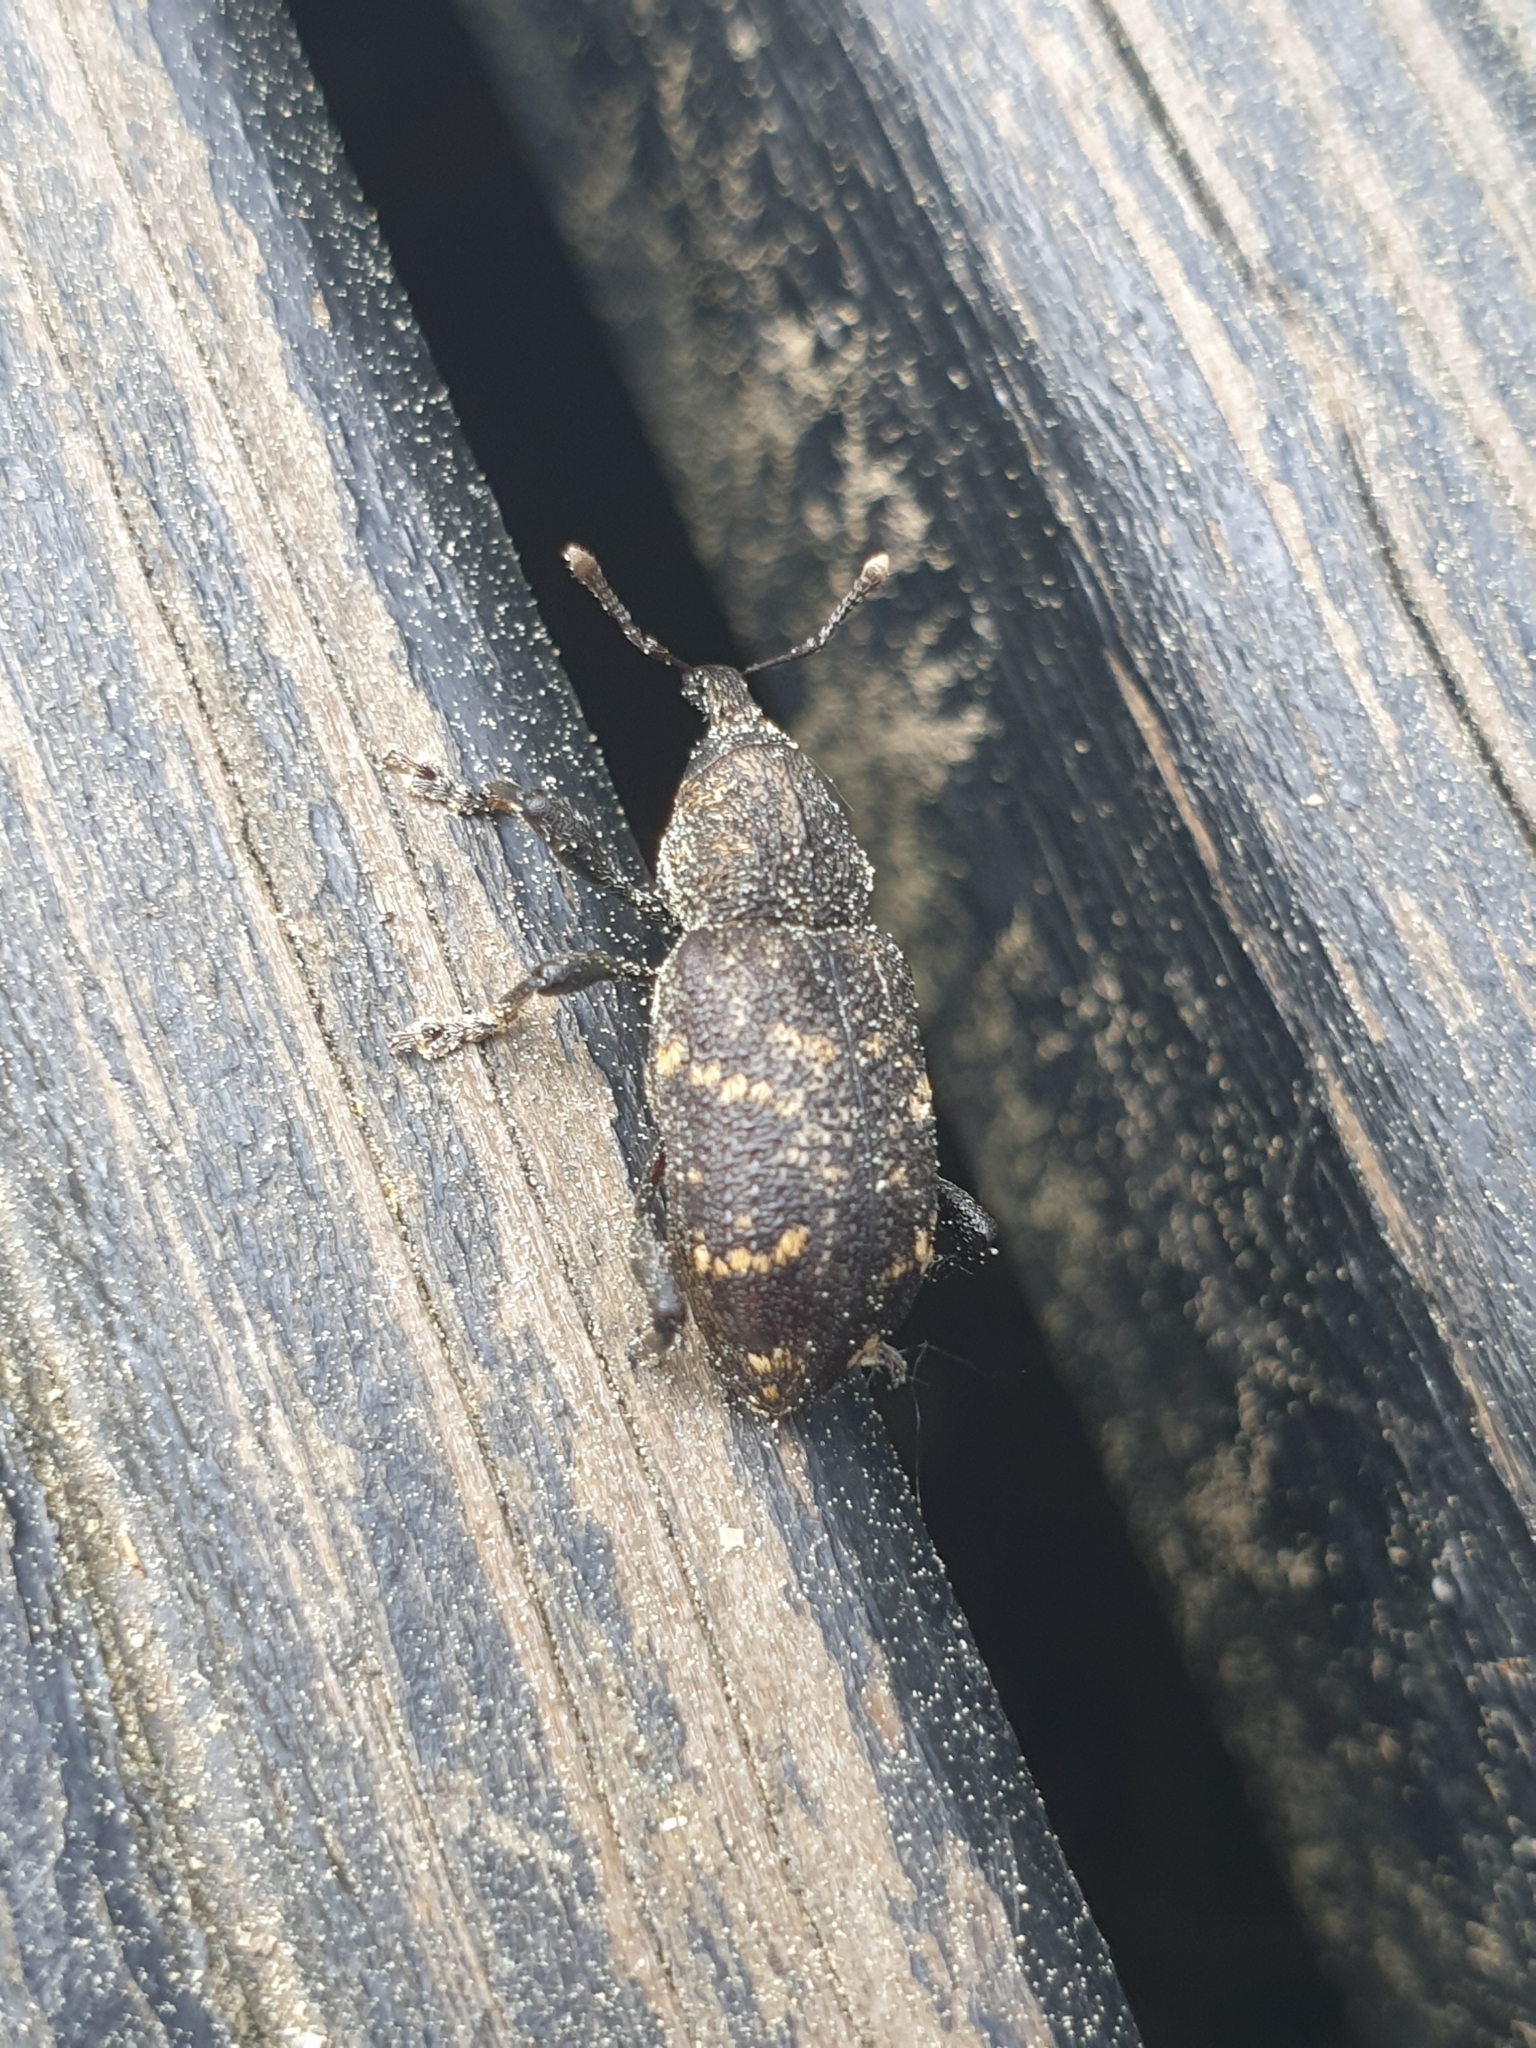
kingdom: Animalia
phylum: Arthropoda
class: Insecta
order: Coleoptera
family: Curculionidae
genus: Hylobius
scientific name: Hylobius abietis
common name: Large pine weevil
